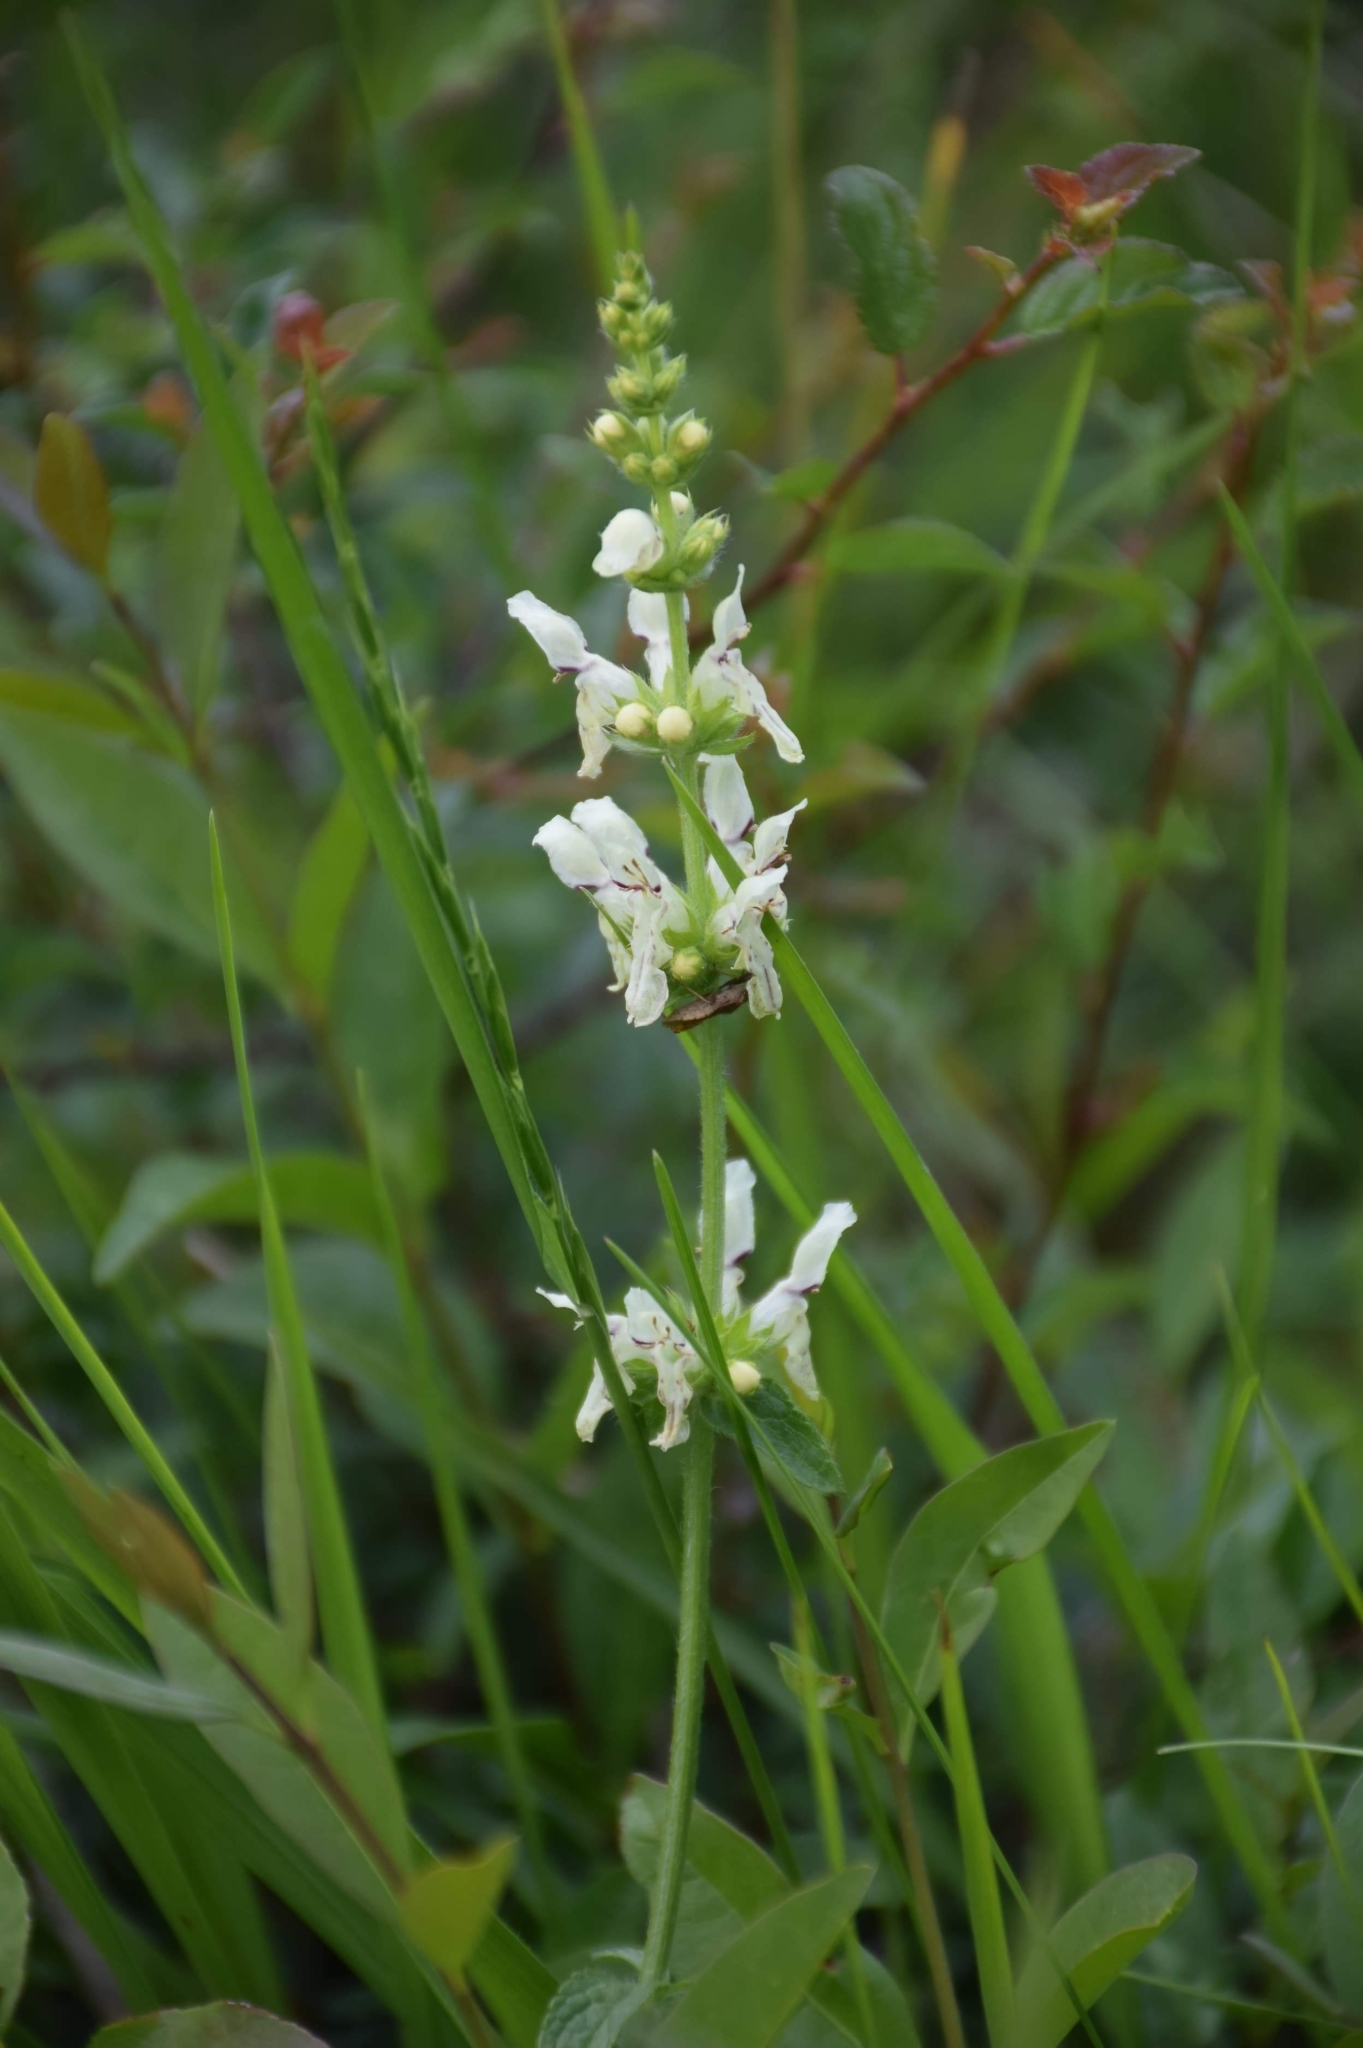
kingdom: Plantae
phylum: Tracheophyta
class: Magnoliopsida
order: Lamiales
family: Lamiaceae
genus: Stachys
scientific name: Stachys recta
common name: Perennial yellow-woundwort
